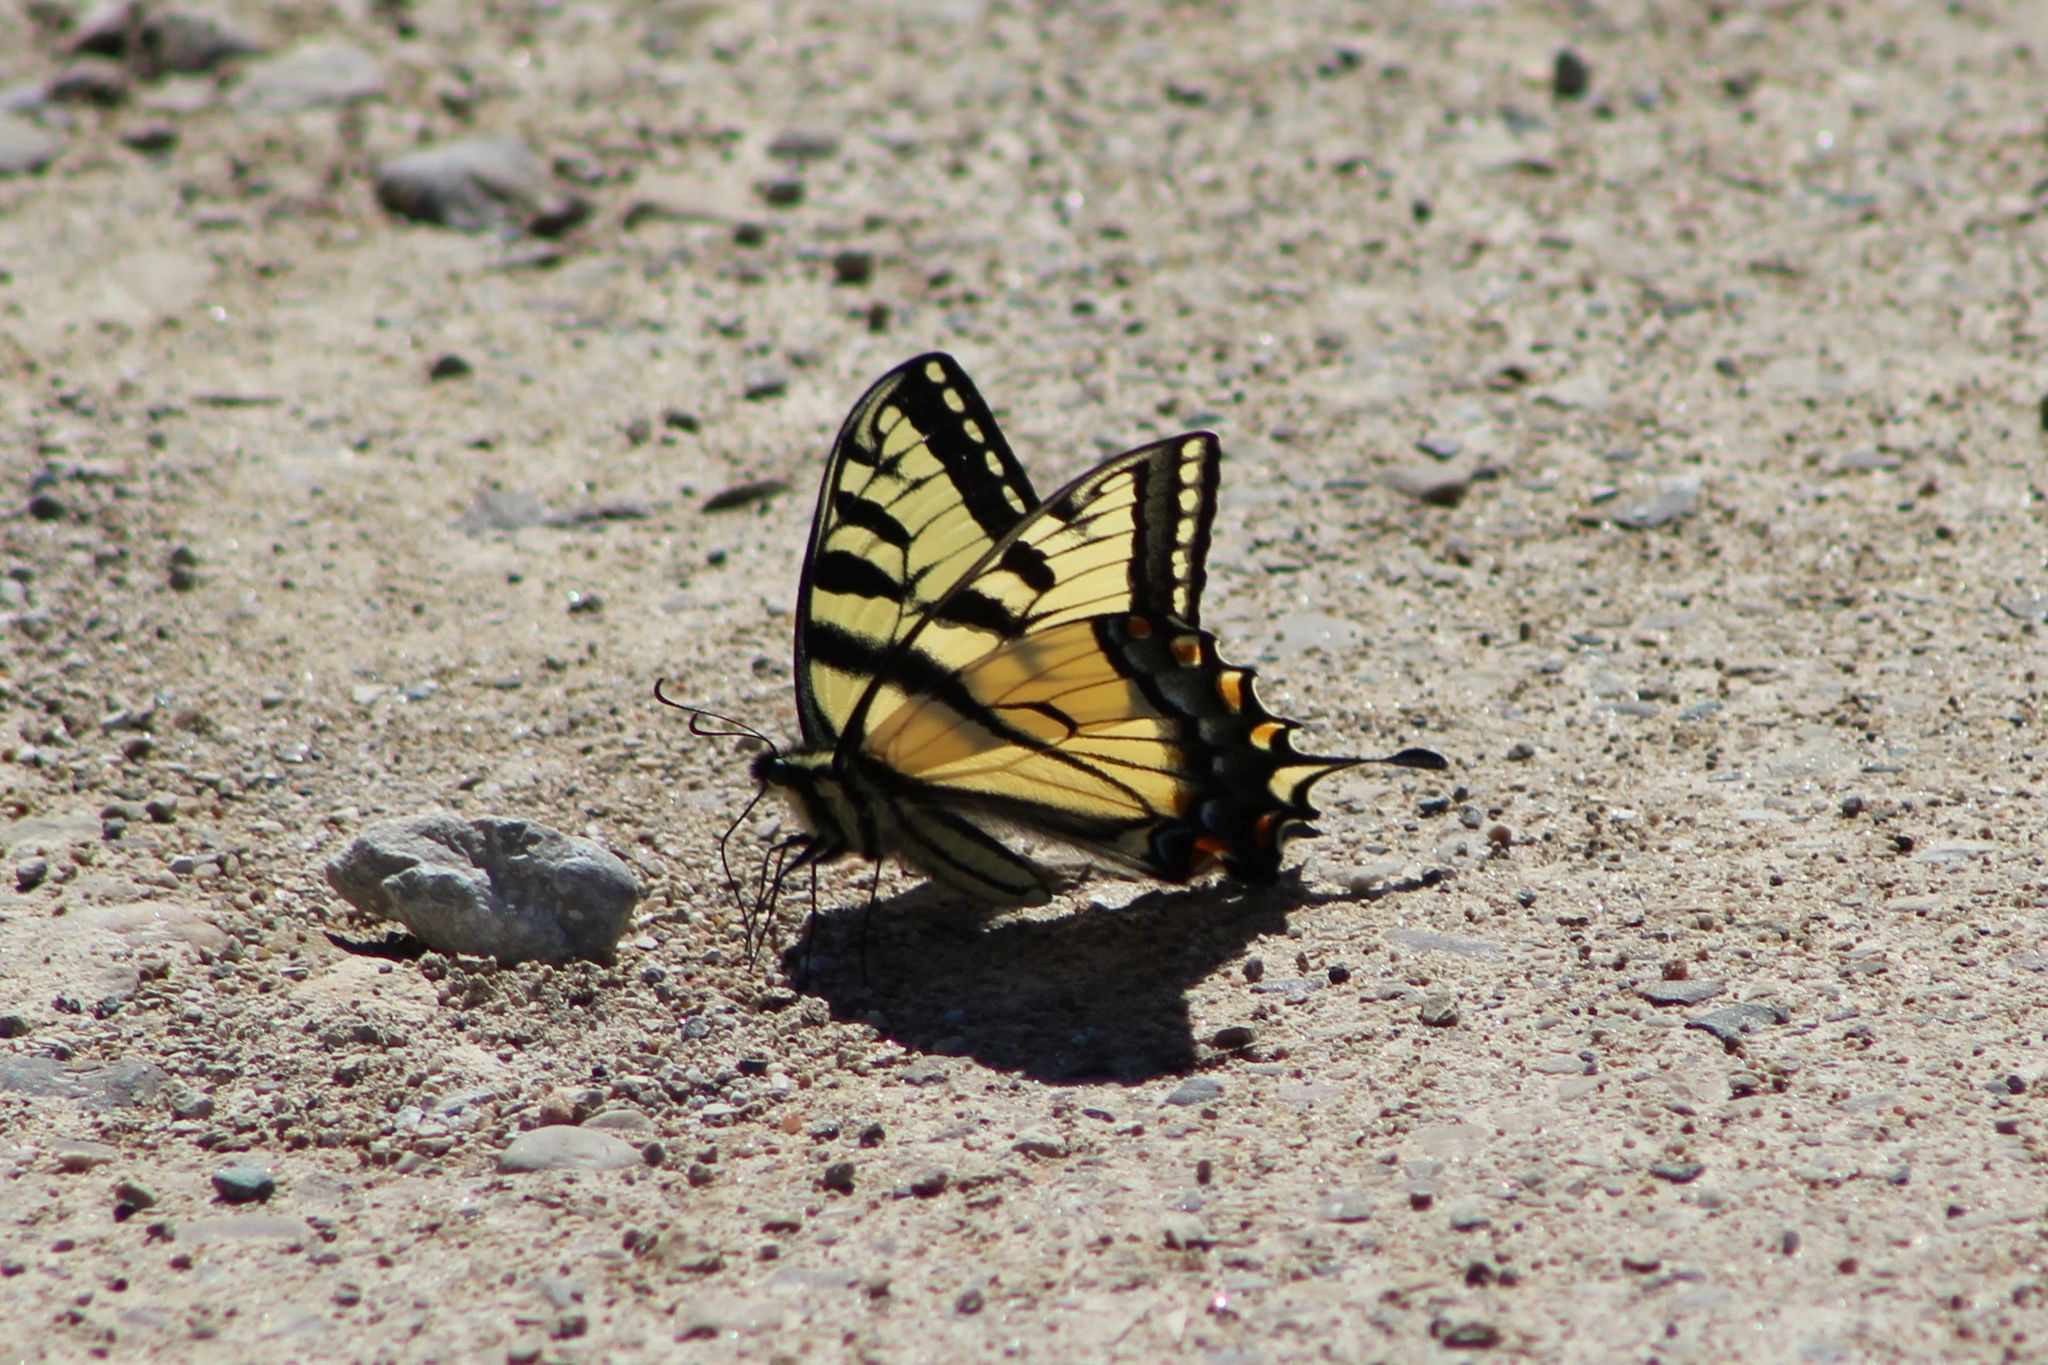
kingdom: Animalia
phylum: Arthropoda
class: Insecta
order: Lepidoptera
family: Papilionidae
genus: Papilio
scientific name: Papilio canadensis
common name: Canadian tiger swallowtail
